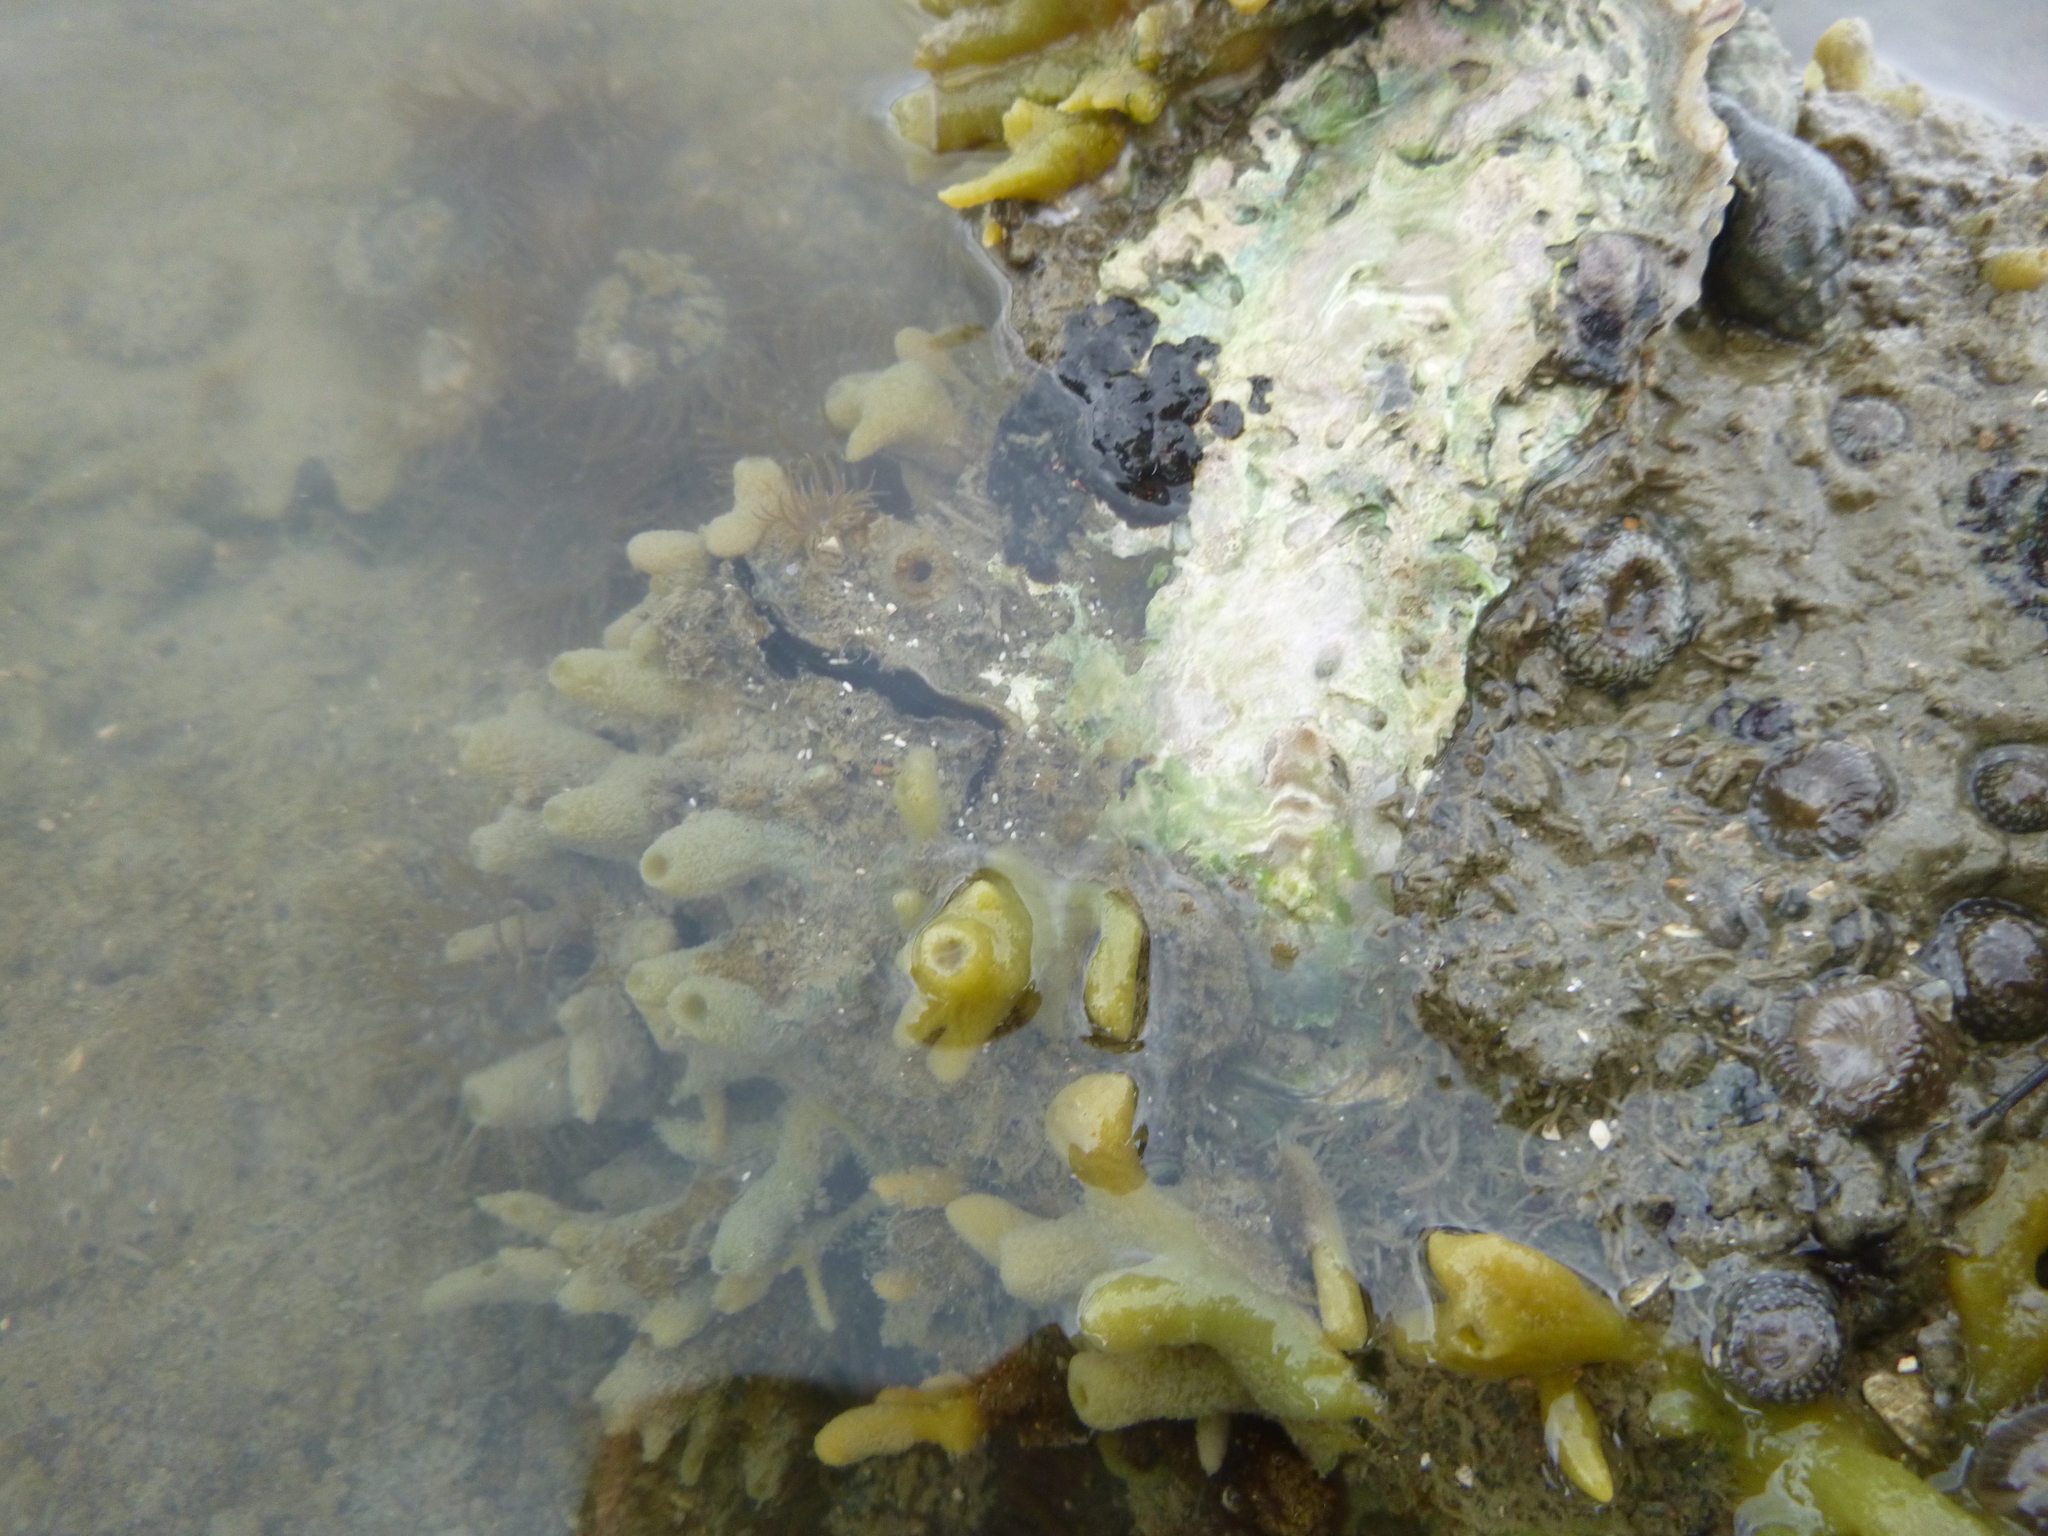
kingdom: Animalia
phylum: Cnidaria
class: Anthozoa
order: Actiniaria
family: Actiniidae
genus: Anthopleura
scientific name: Anthopleura hermaphroditica
